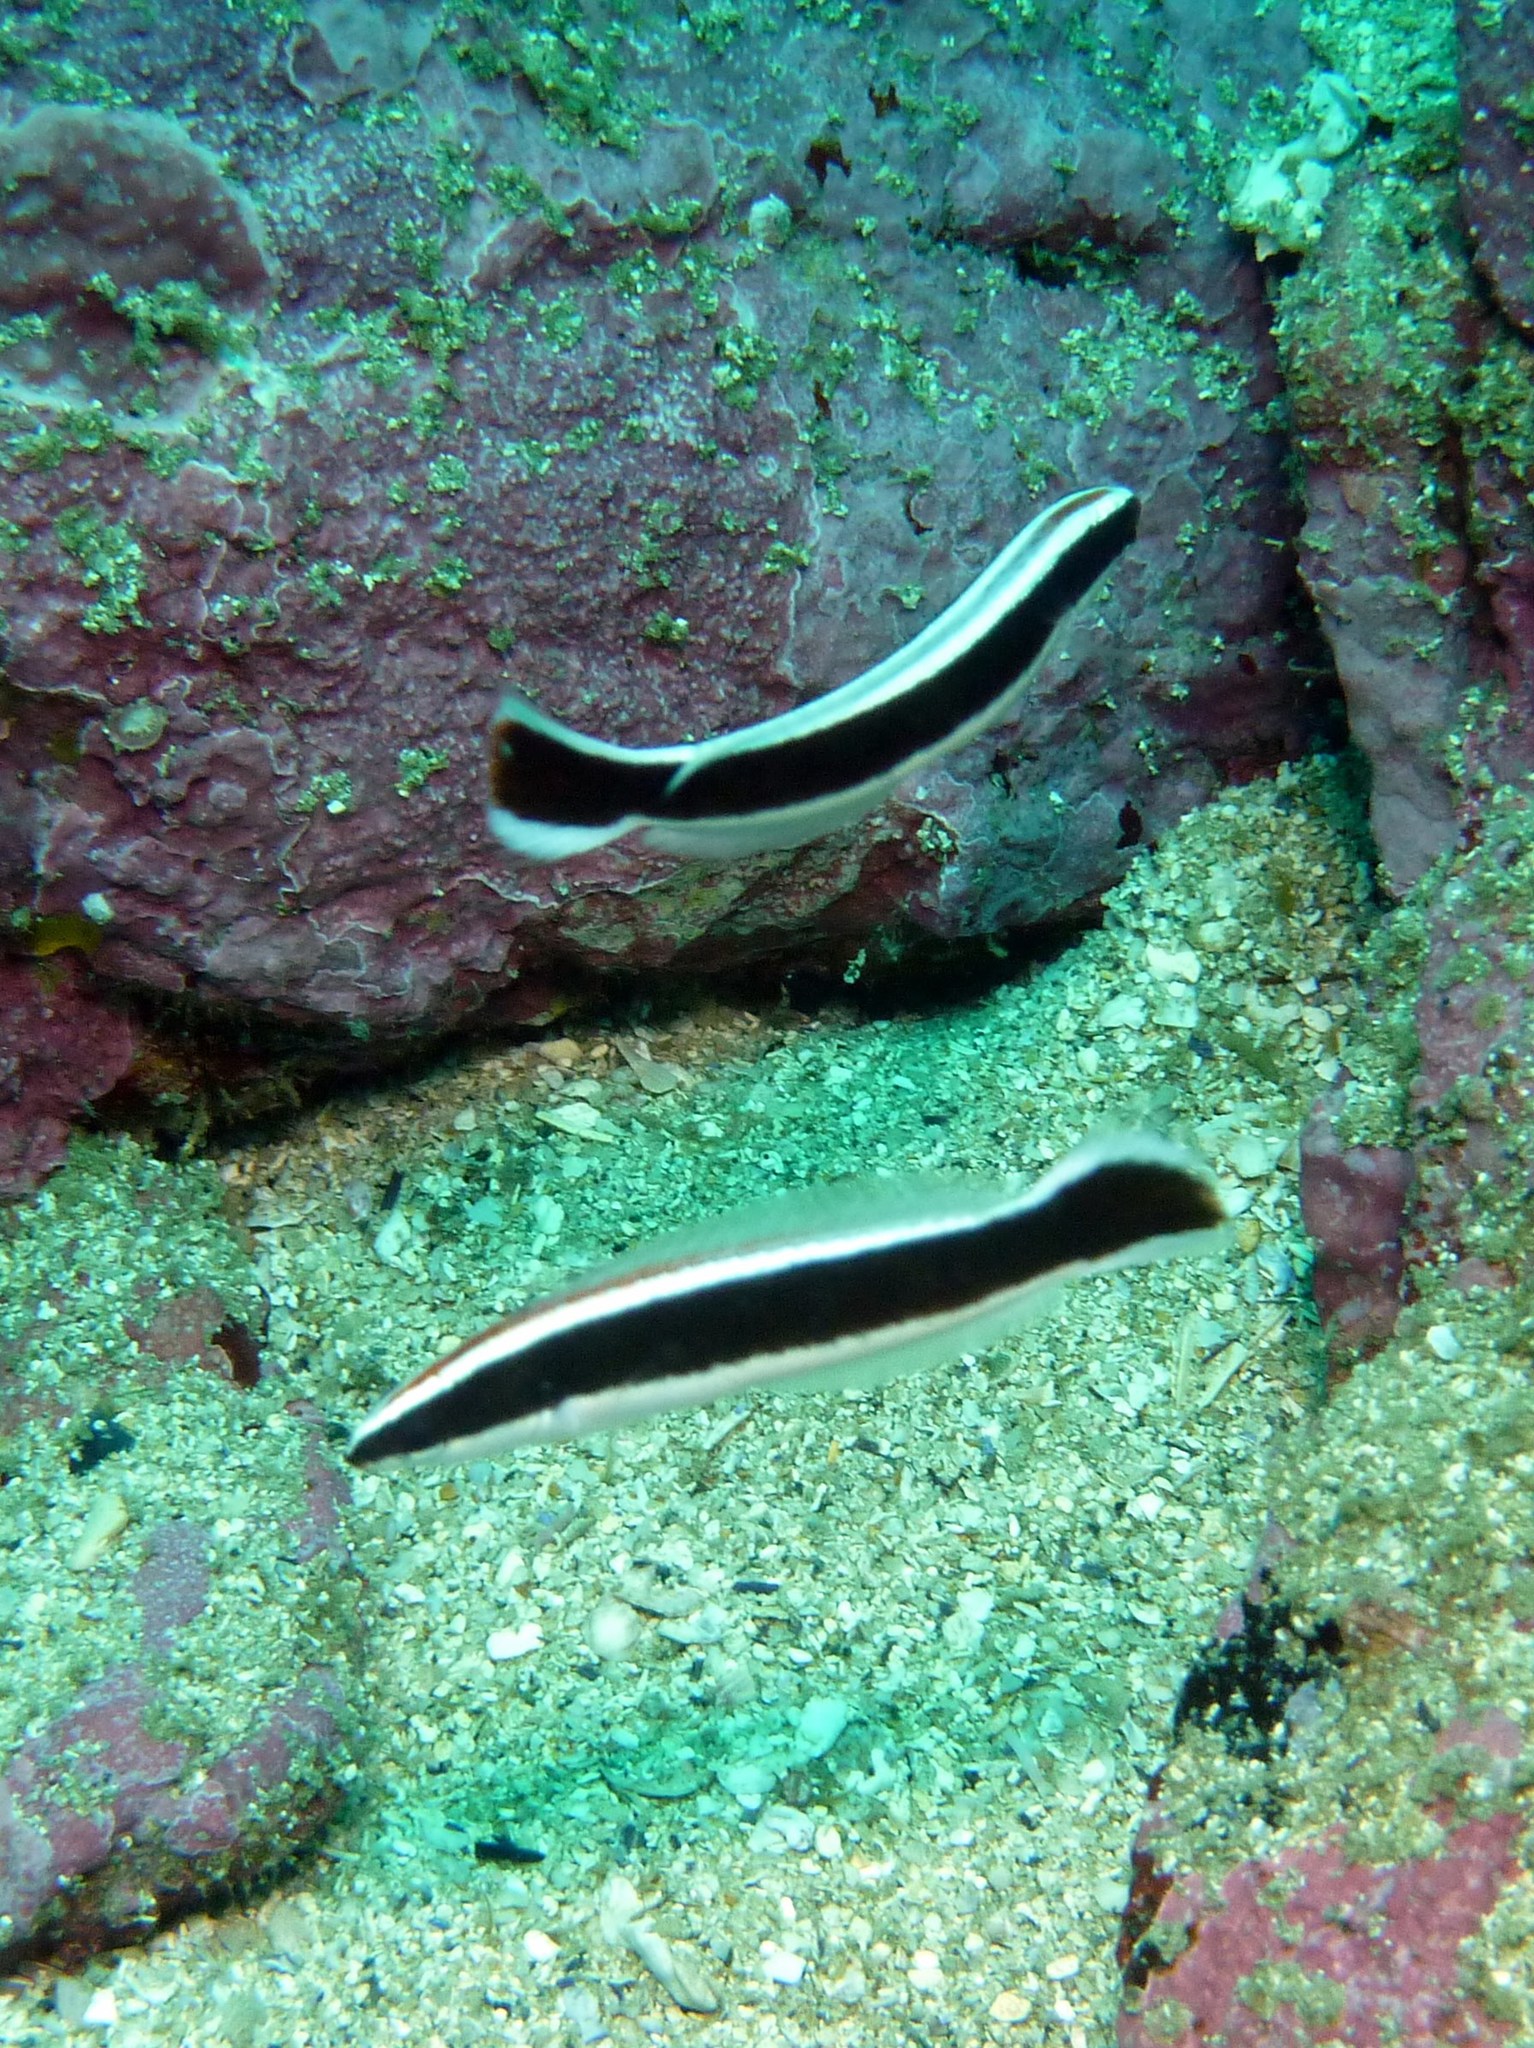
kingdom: Animalia
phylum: Chordata
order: Perciformes
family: Labridae
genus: Coris
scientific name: Coris picta
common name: Combfish
